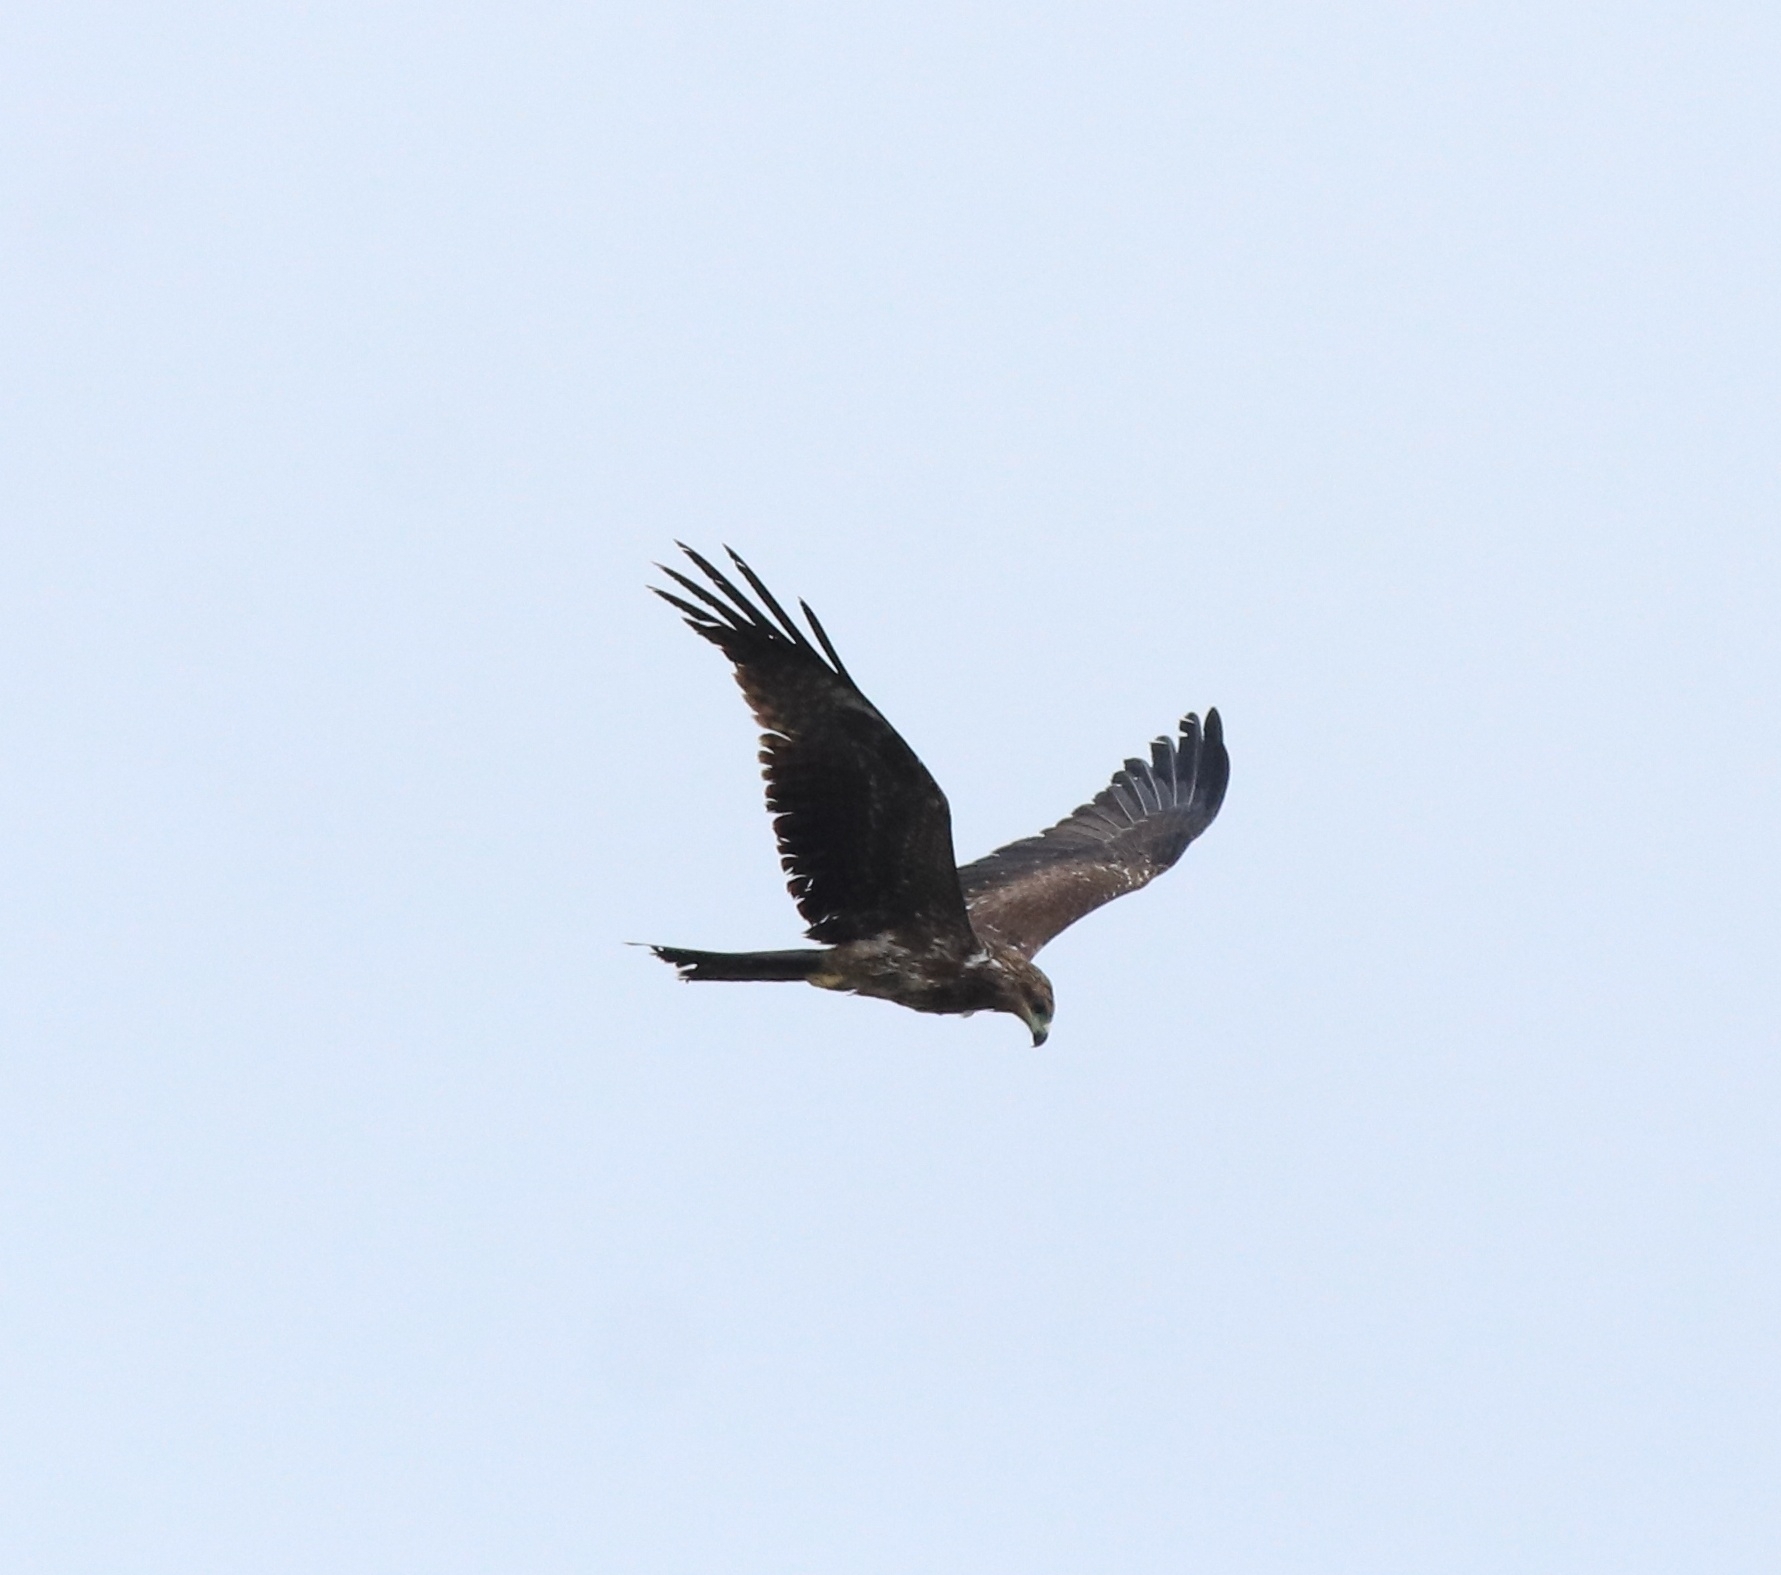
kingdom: Animalia
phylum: Chordata
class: Aves
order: Accipitriformes
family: Accipitridae
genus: Milvus
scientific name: Milvus migrans
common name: Black kite
